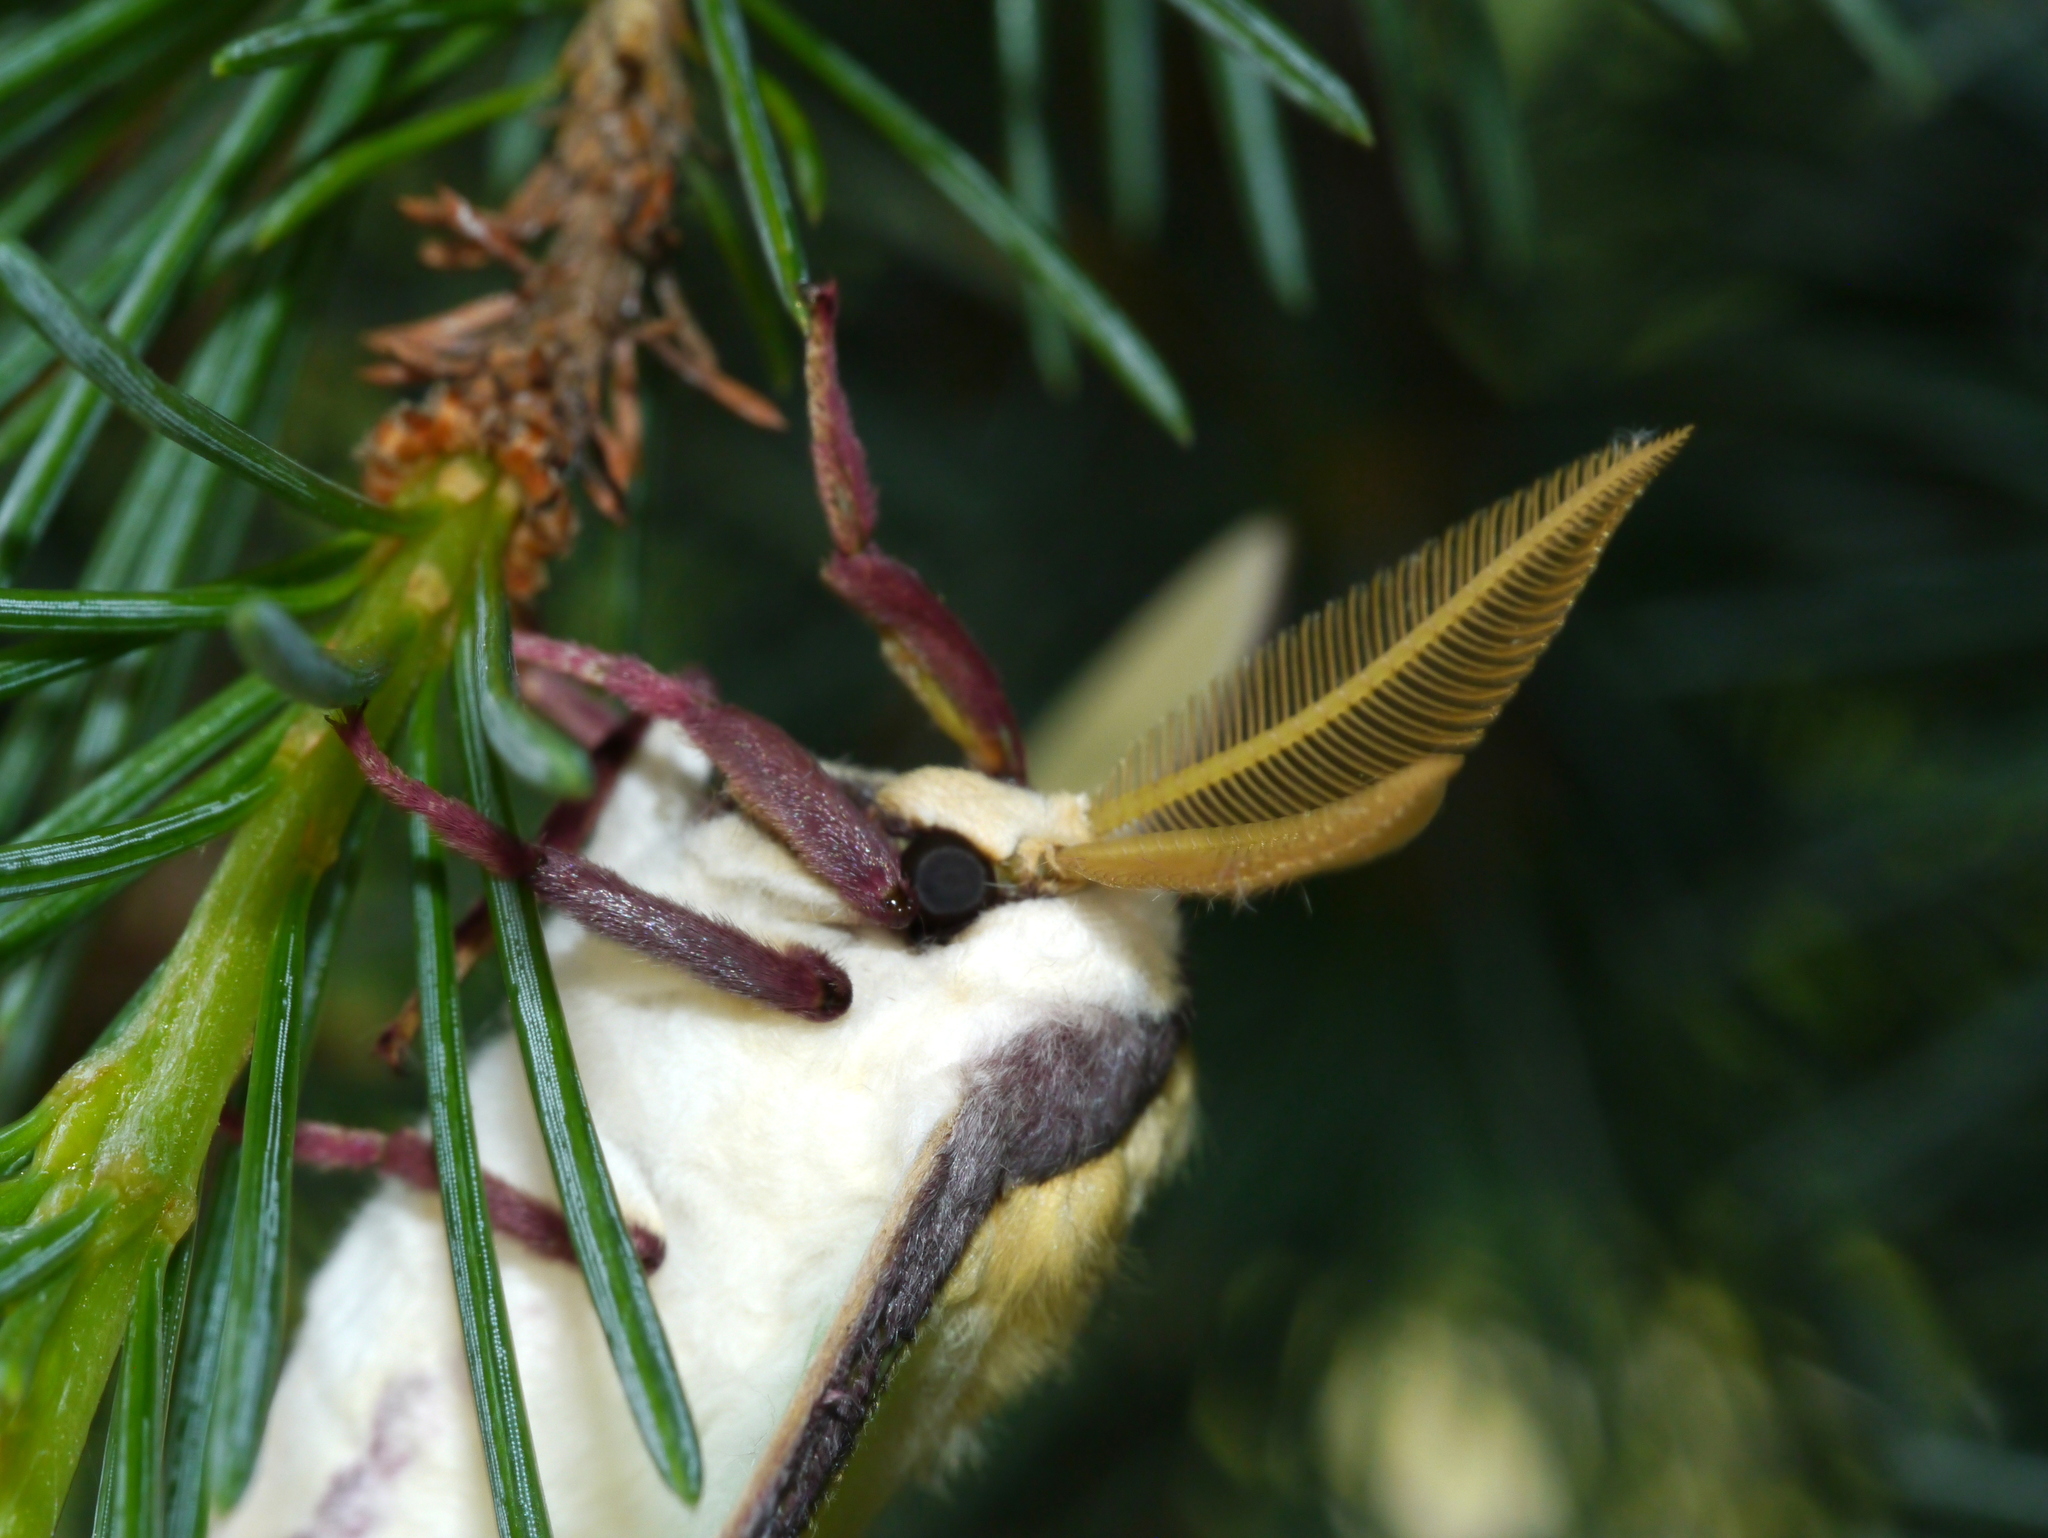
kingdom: Animalia
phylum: Arthropoda
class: Insecta
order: Lepidoptera
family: Saturniidae
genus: Actias
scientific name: Actias luna
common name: Luna moth
